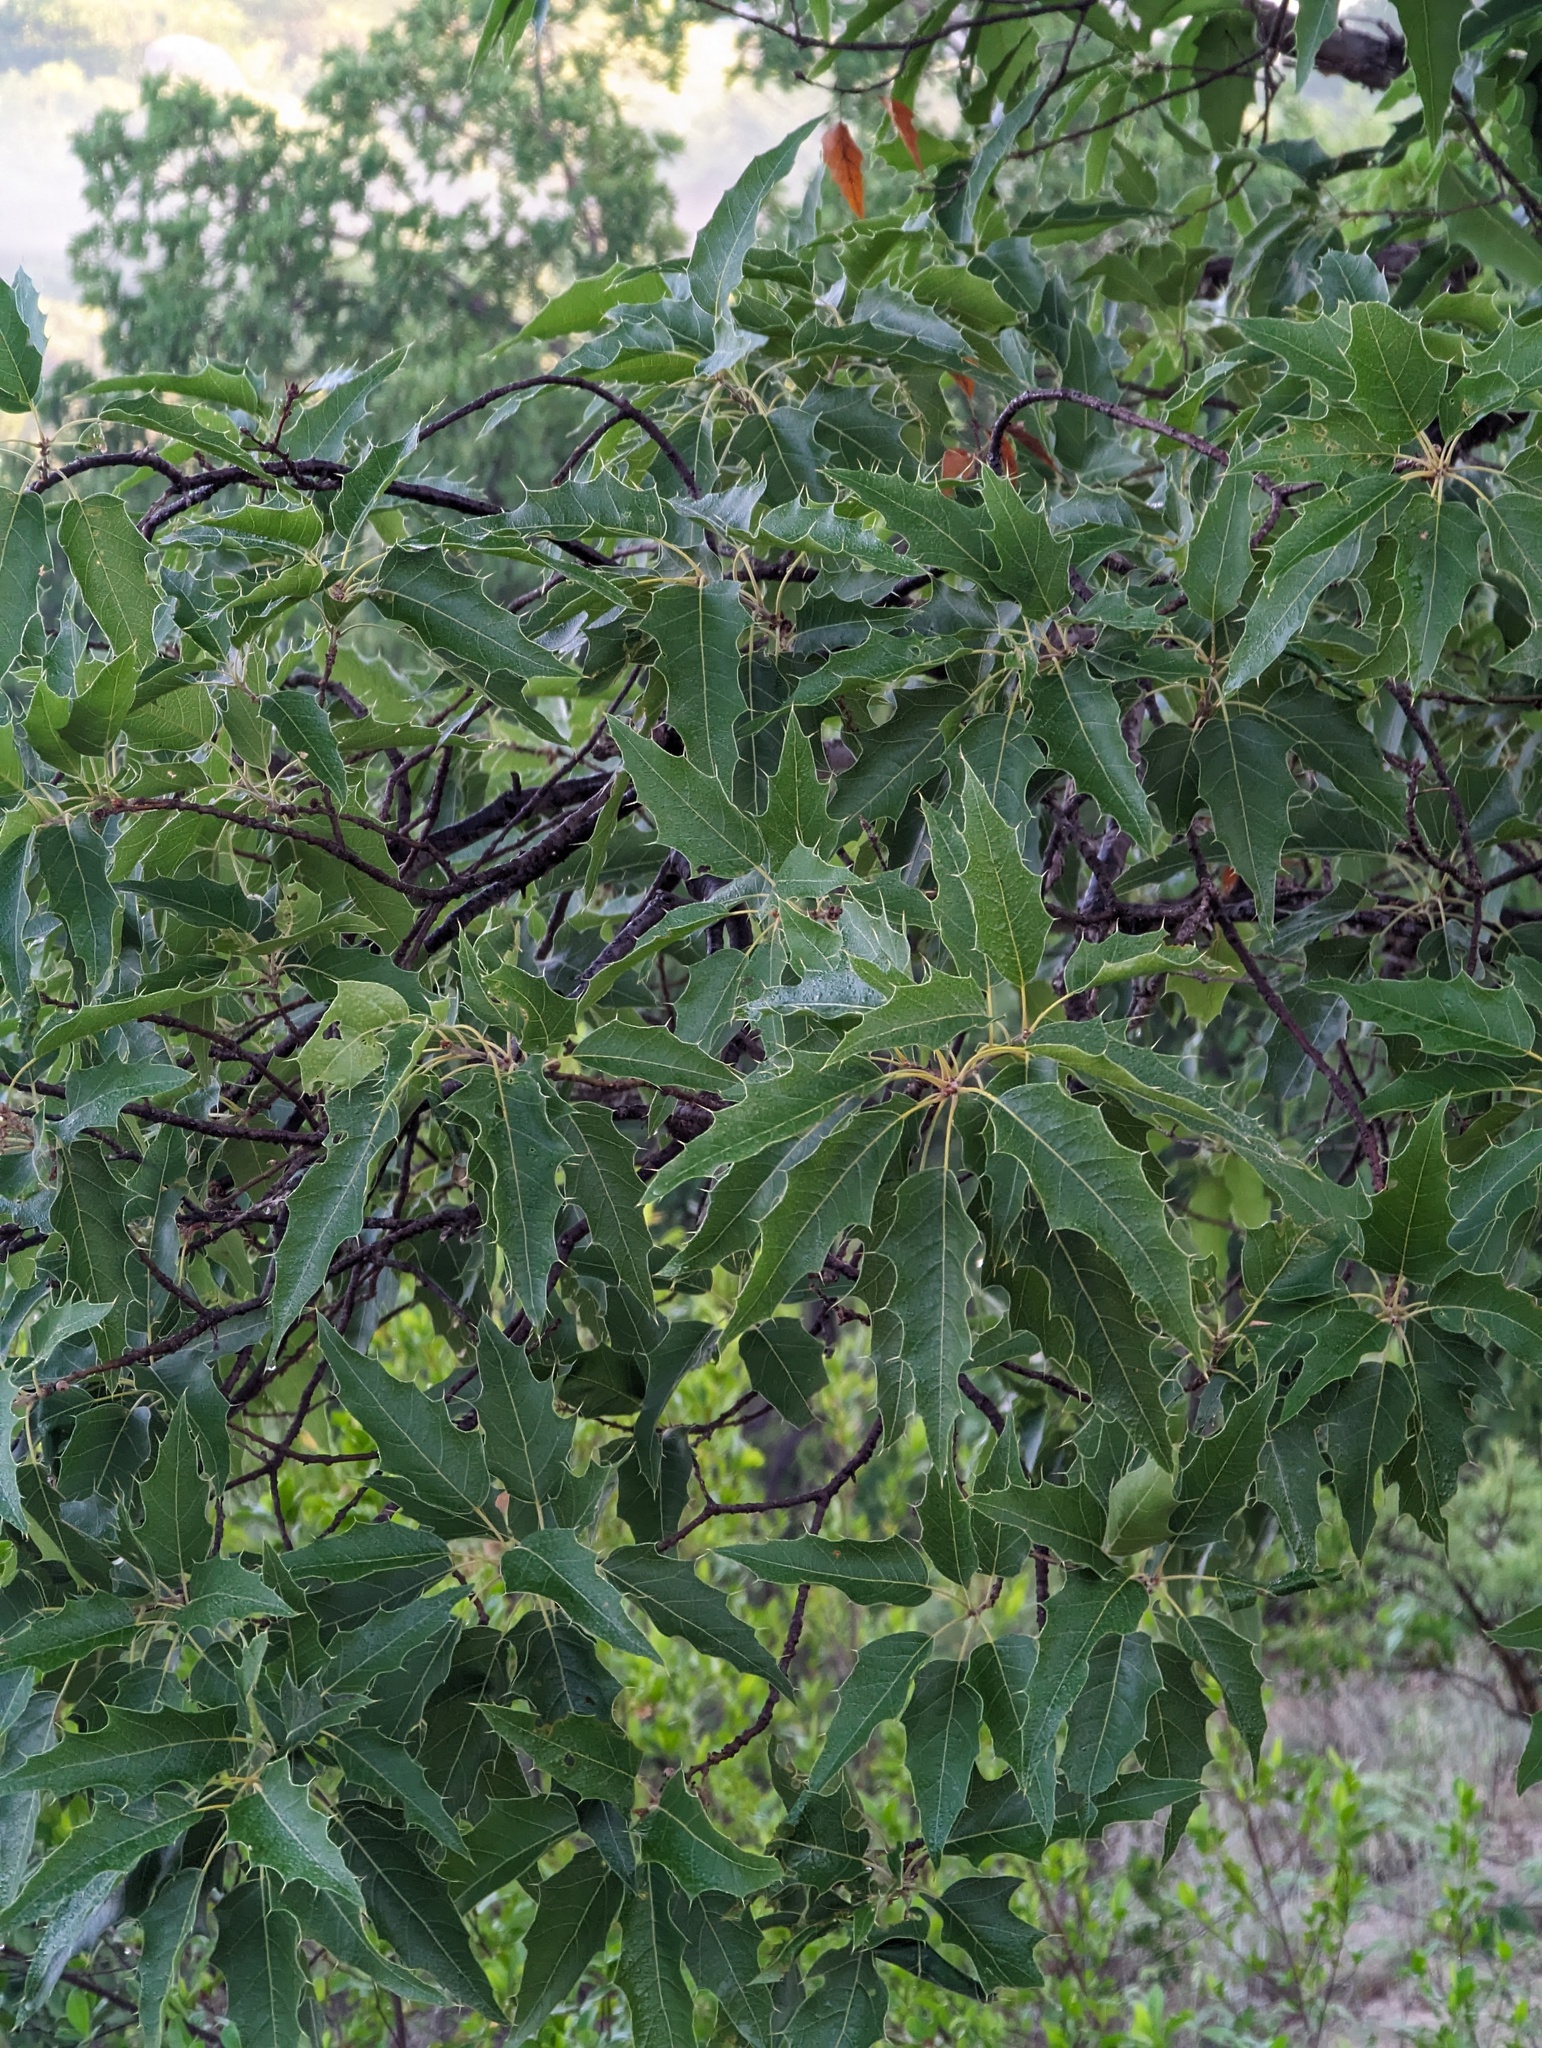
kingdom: Plantae
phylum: Tracheophyta
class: Magnoliopsida
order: Fagales
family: Fagaceae
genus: Quercus
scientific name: Quercus albocincta
